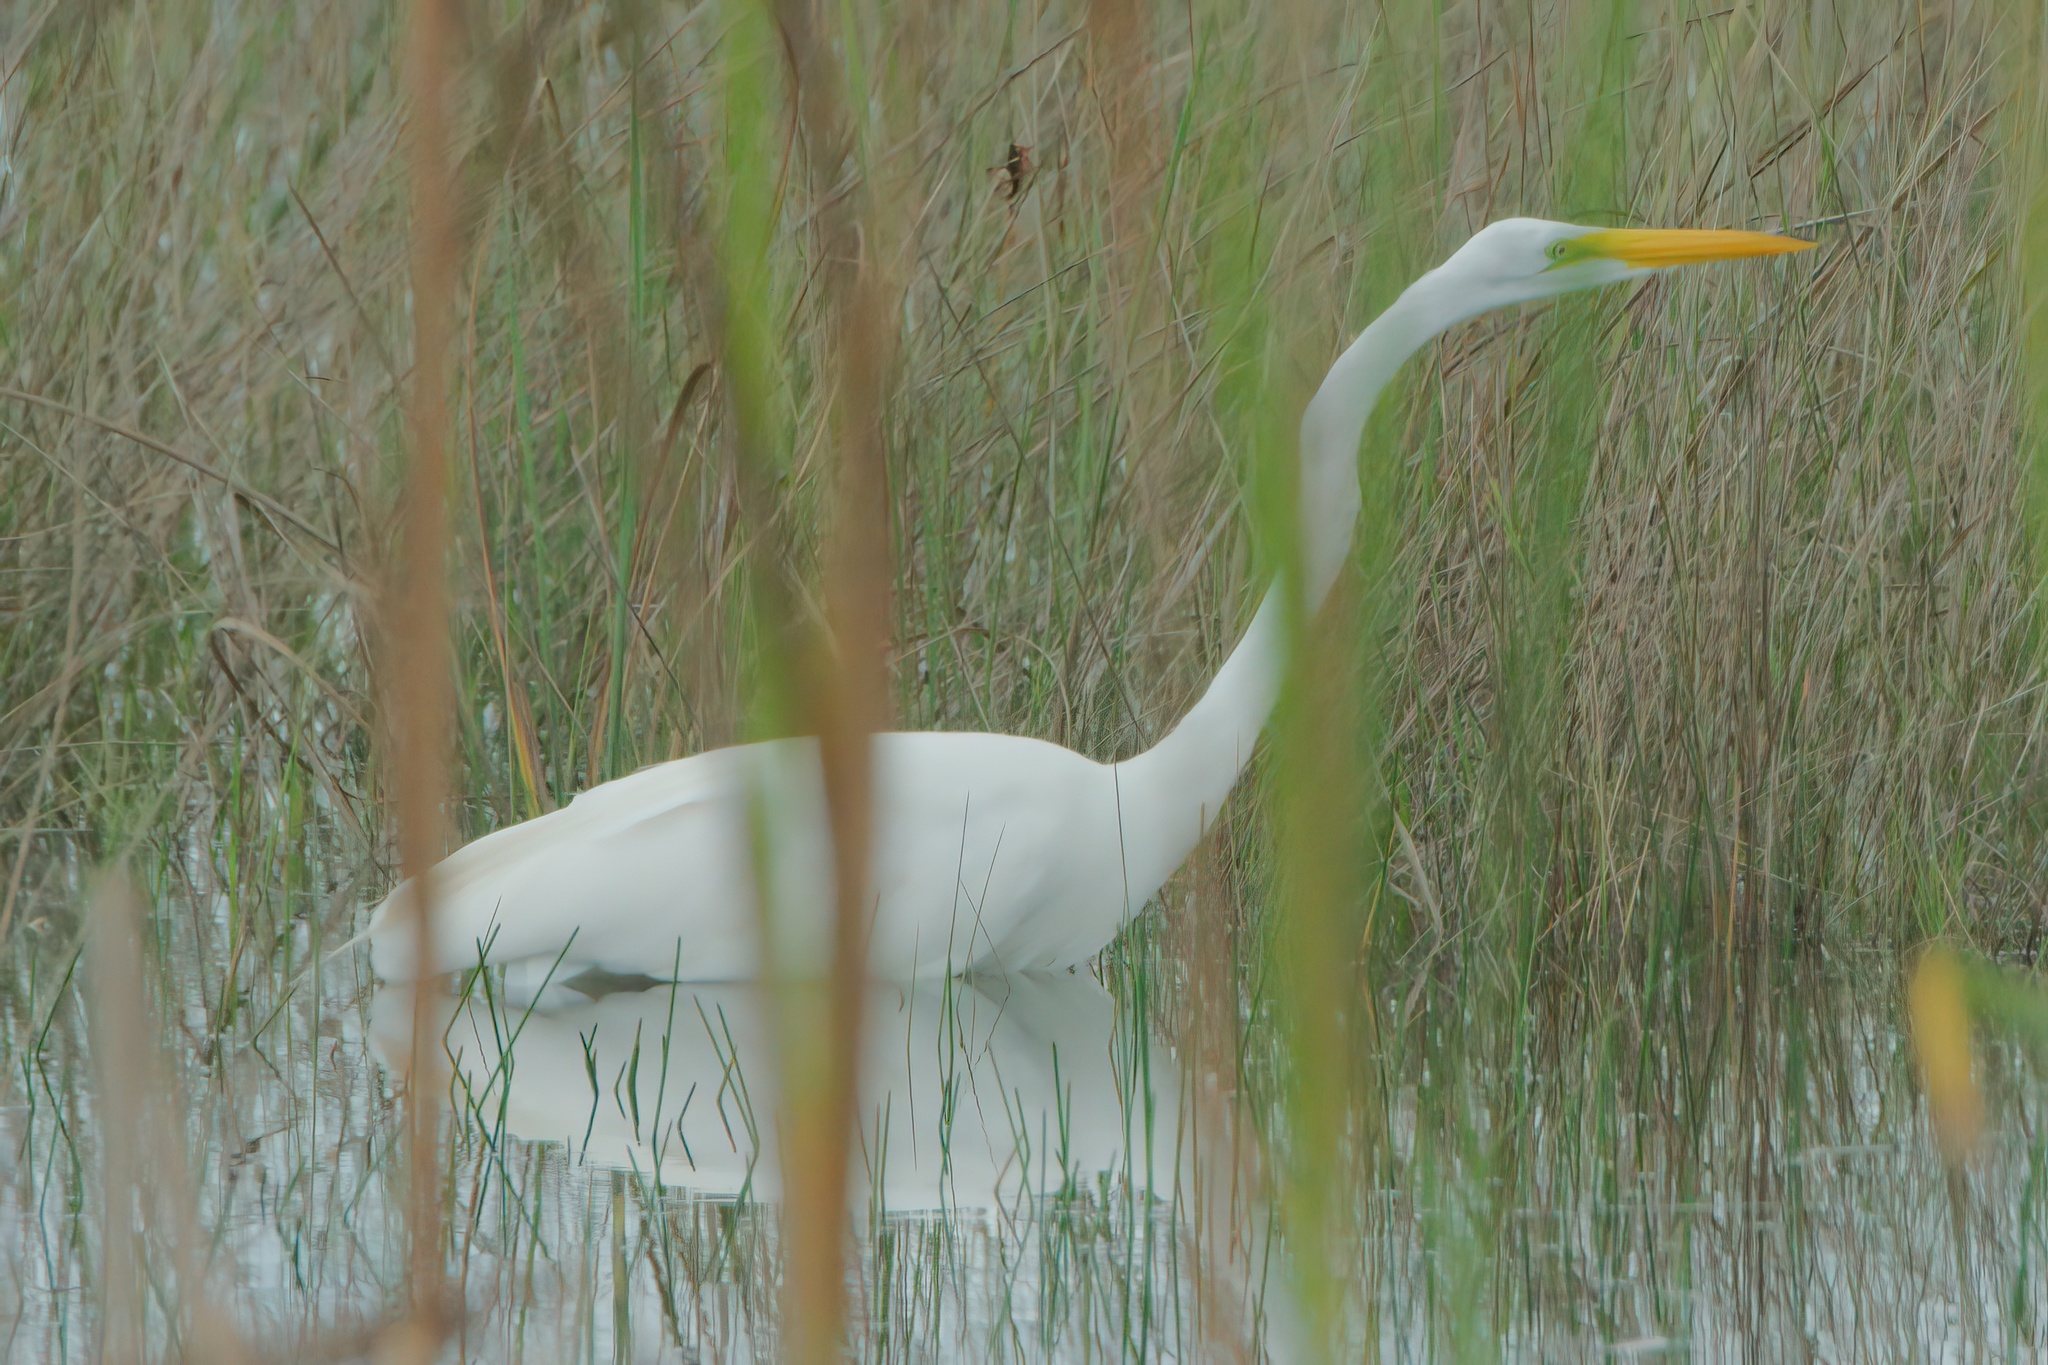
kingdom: Animalia
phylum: Chordata
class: Aves
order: Pelecaniformes
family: Ardeidae
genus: Ardea
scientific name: Ardea alba
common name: Great egret
